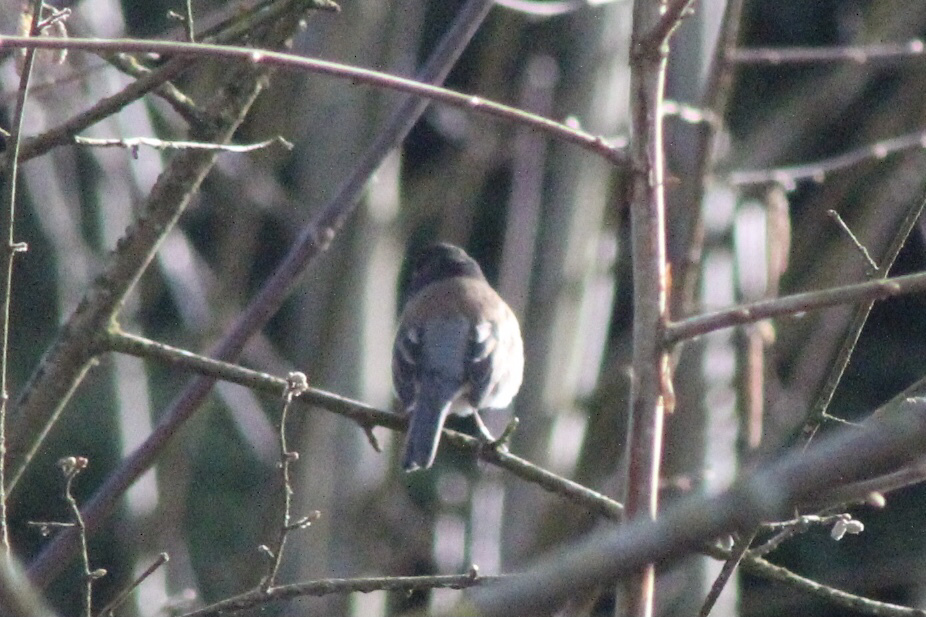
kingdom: Animalia
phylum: Chordata
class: Aves
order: Passeriformes
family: Passerellidae
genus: Junco
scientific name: Junco hyemalis
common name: Dark-eyed junco
